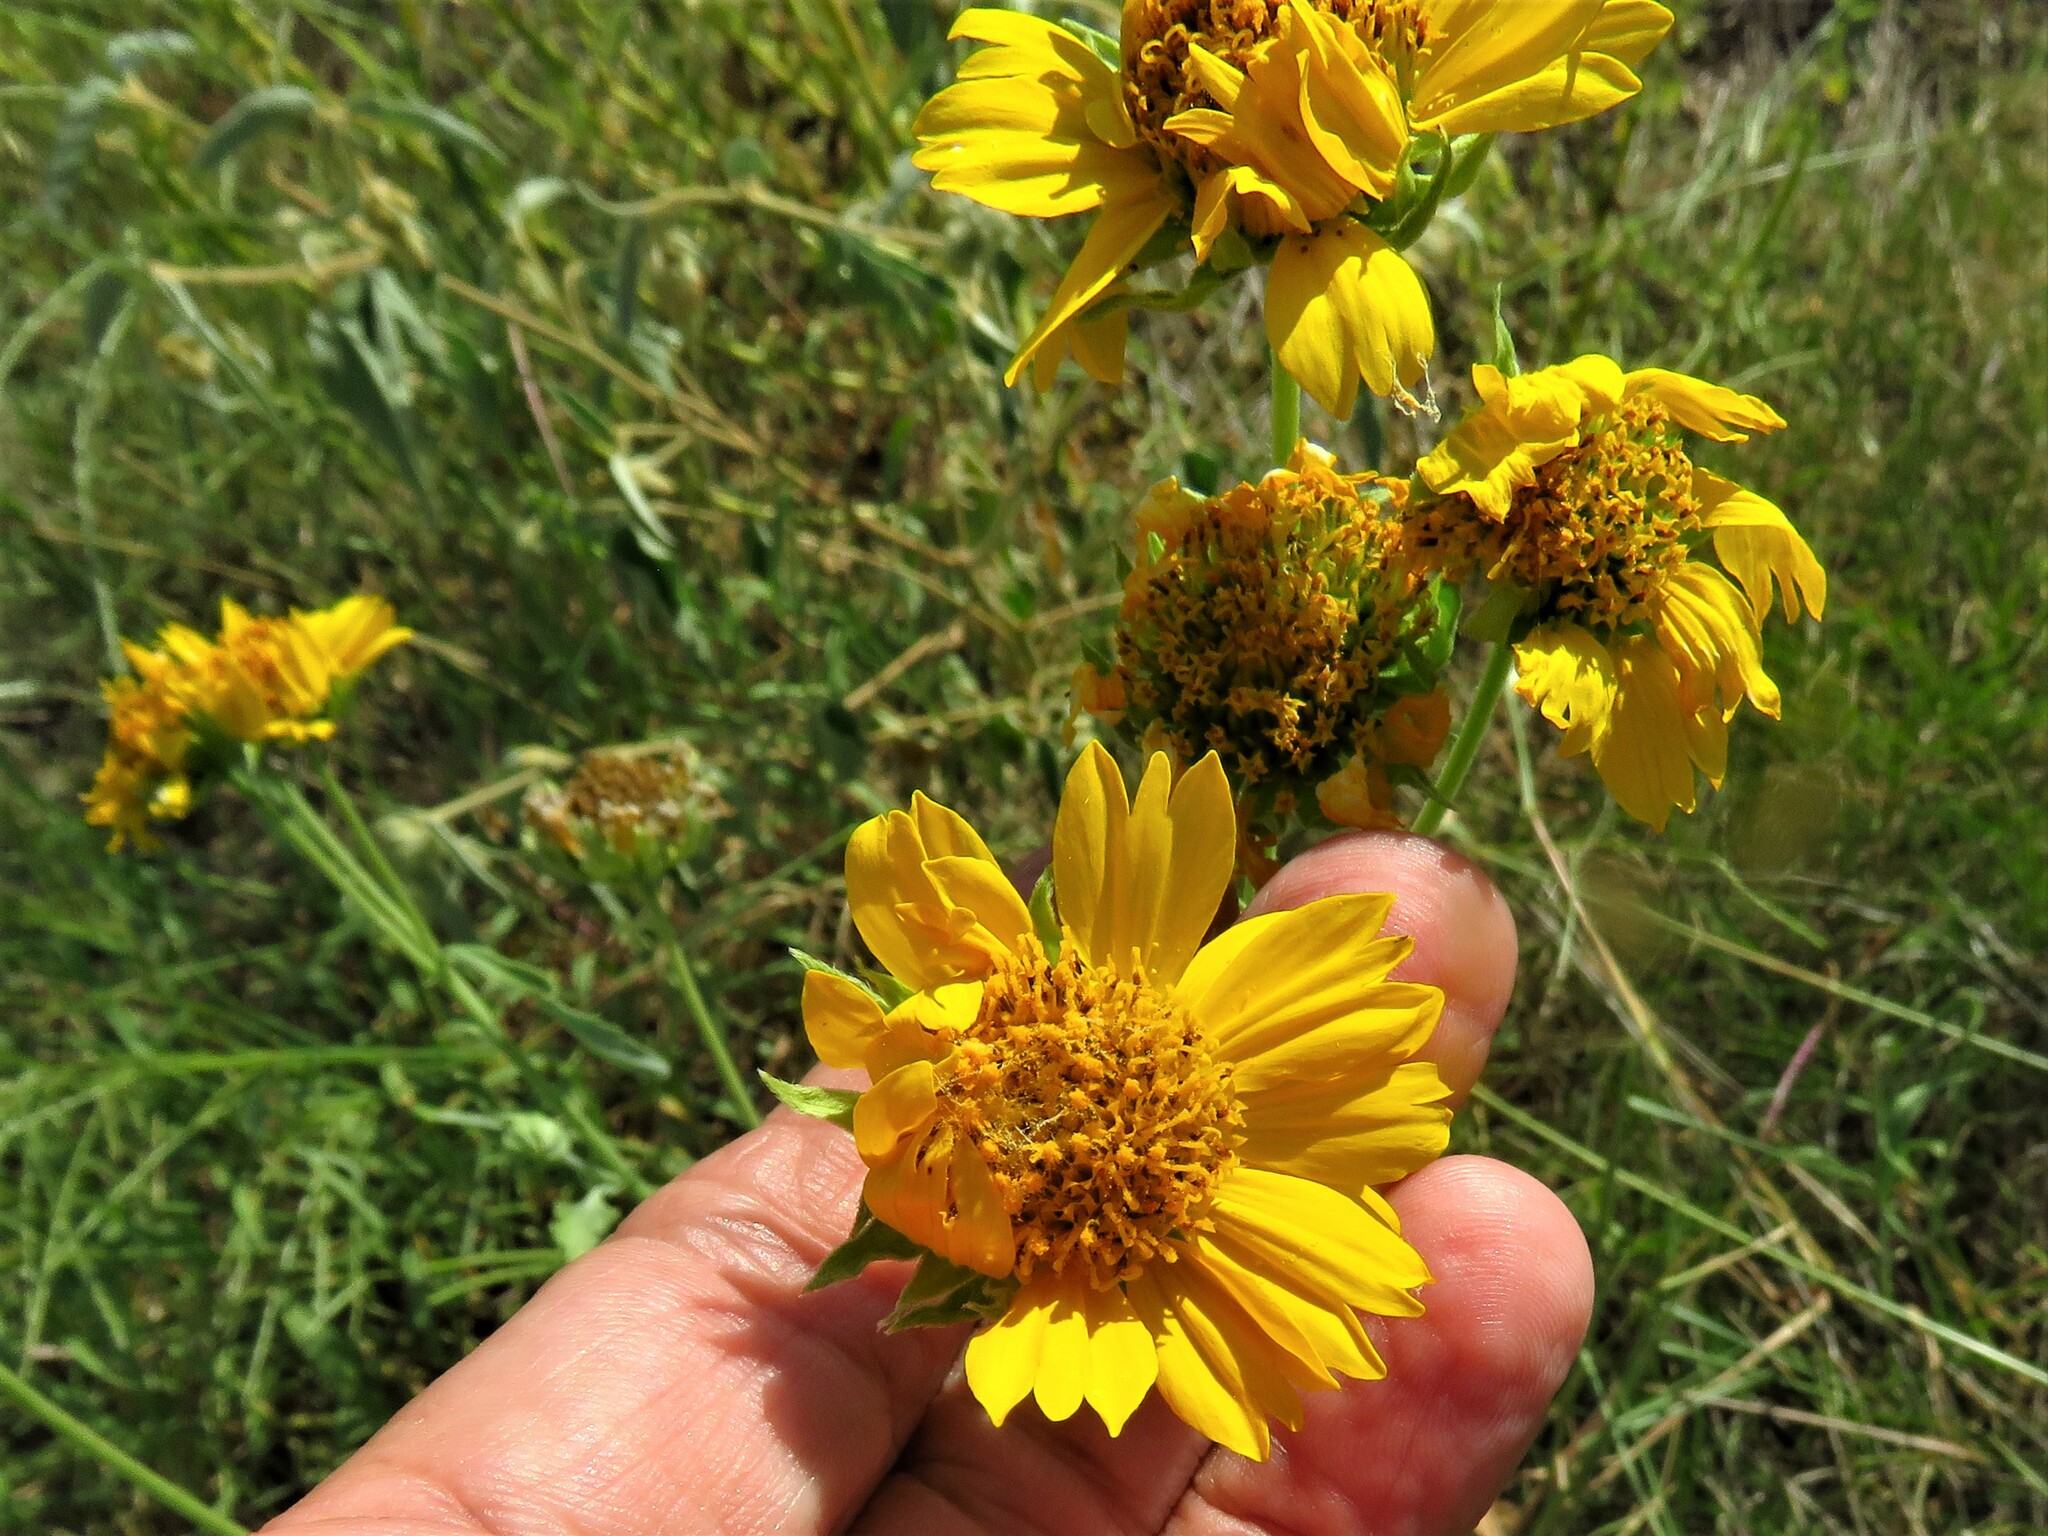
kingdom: Plantae
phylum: Tracheophyta
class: Magnoliopsida
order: Asterales
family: Asteraceae
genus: Verbesina
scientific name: Verbesina encelioides
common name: Golden crownbeard
